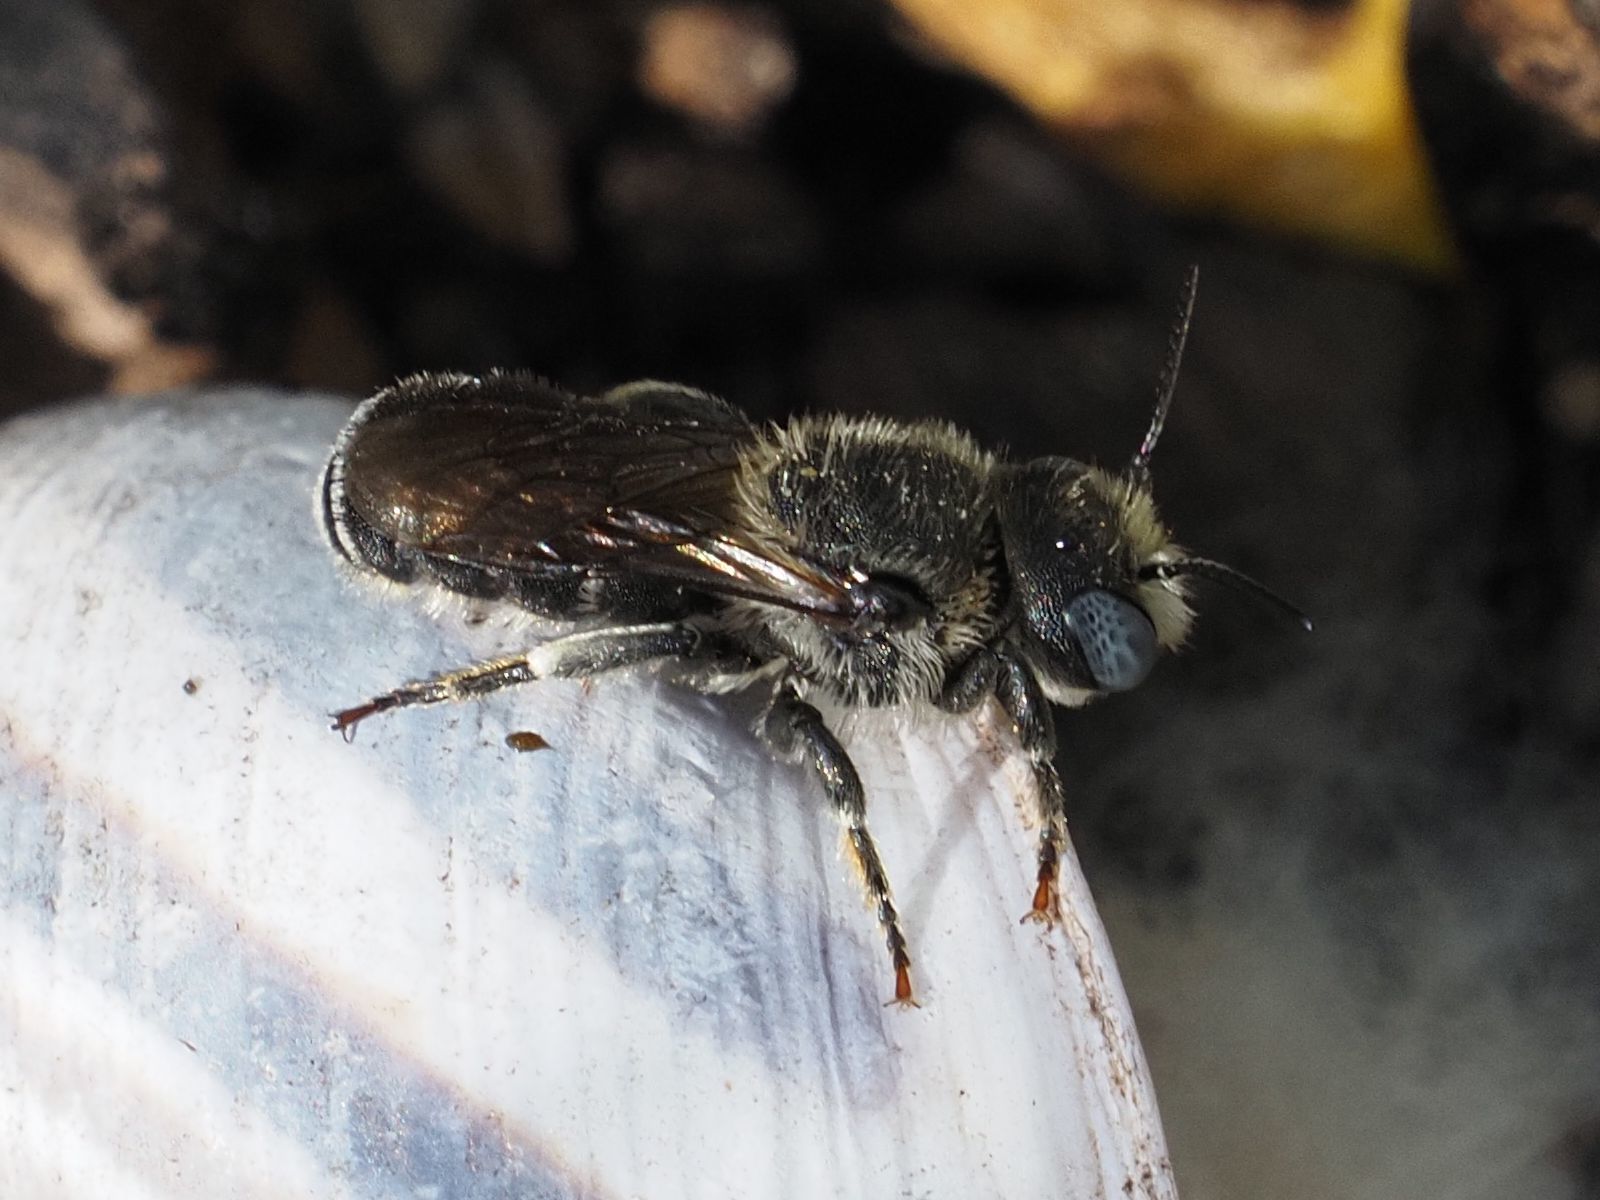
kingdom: Animalia
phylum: Arthropoda
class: Insecta
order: Hymenoptera
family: Megachilidae
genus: Osmia
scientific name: Osmia spinulosa
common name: Spined mason bee
